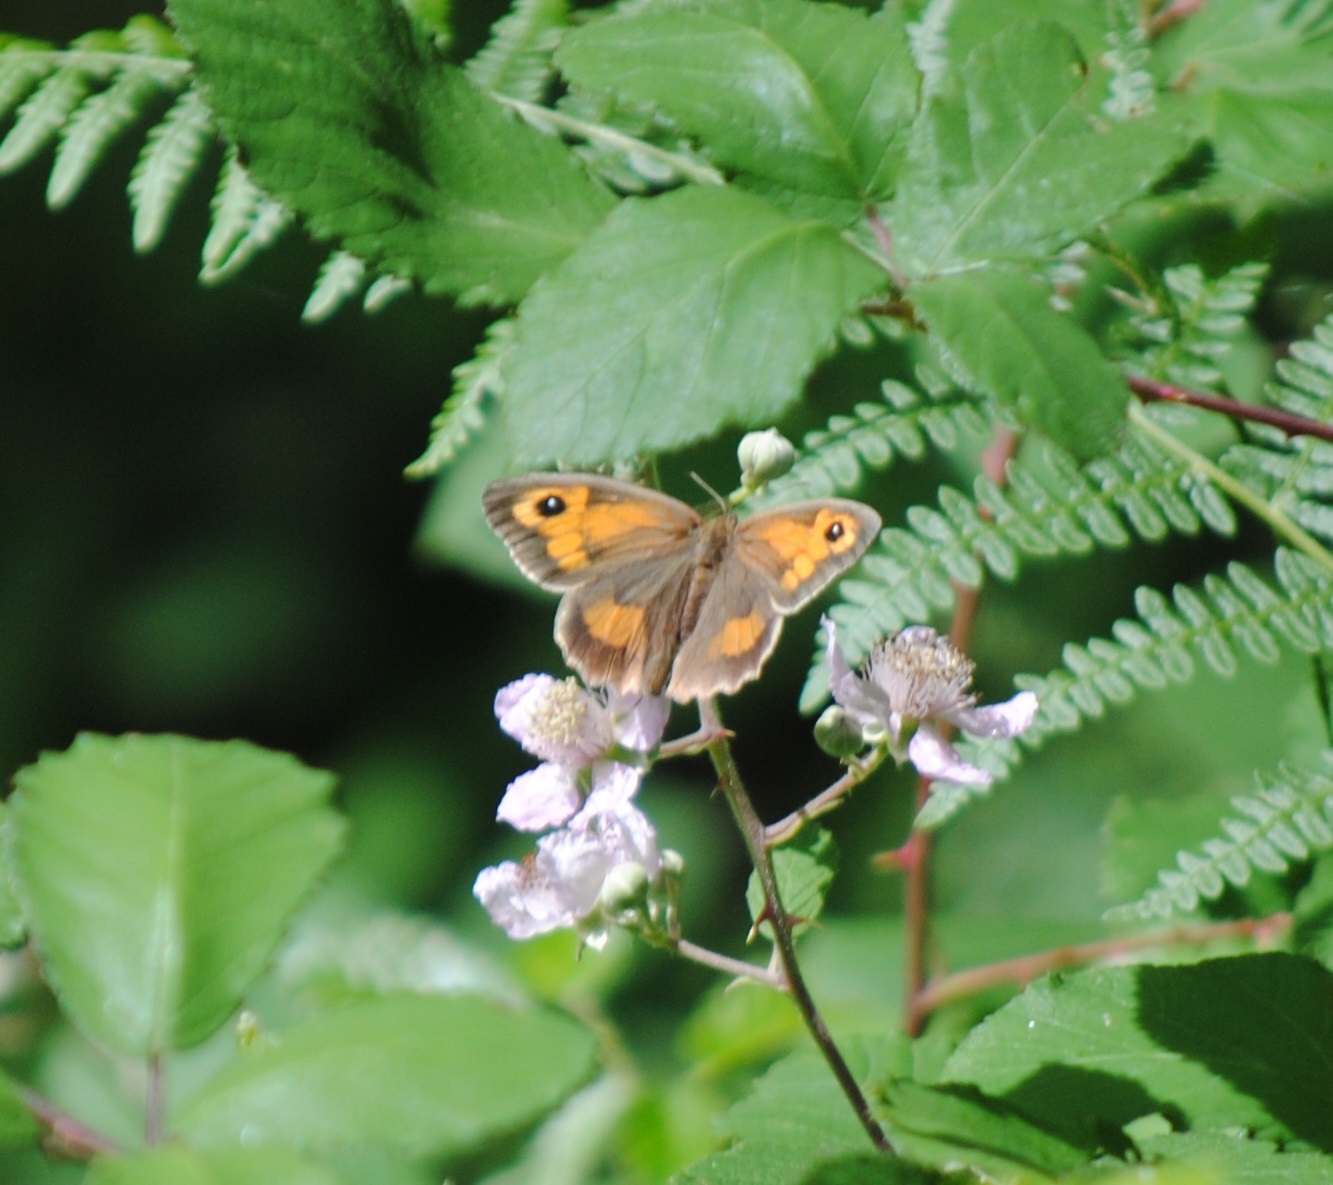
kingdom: Animalia
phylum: Arthropoda
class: Insecta
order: Lepidoptera
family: Nymphalidae
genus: Maniola
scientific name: Maniola jurtina
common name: Meadow brown
